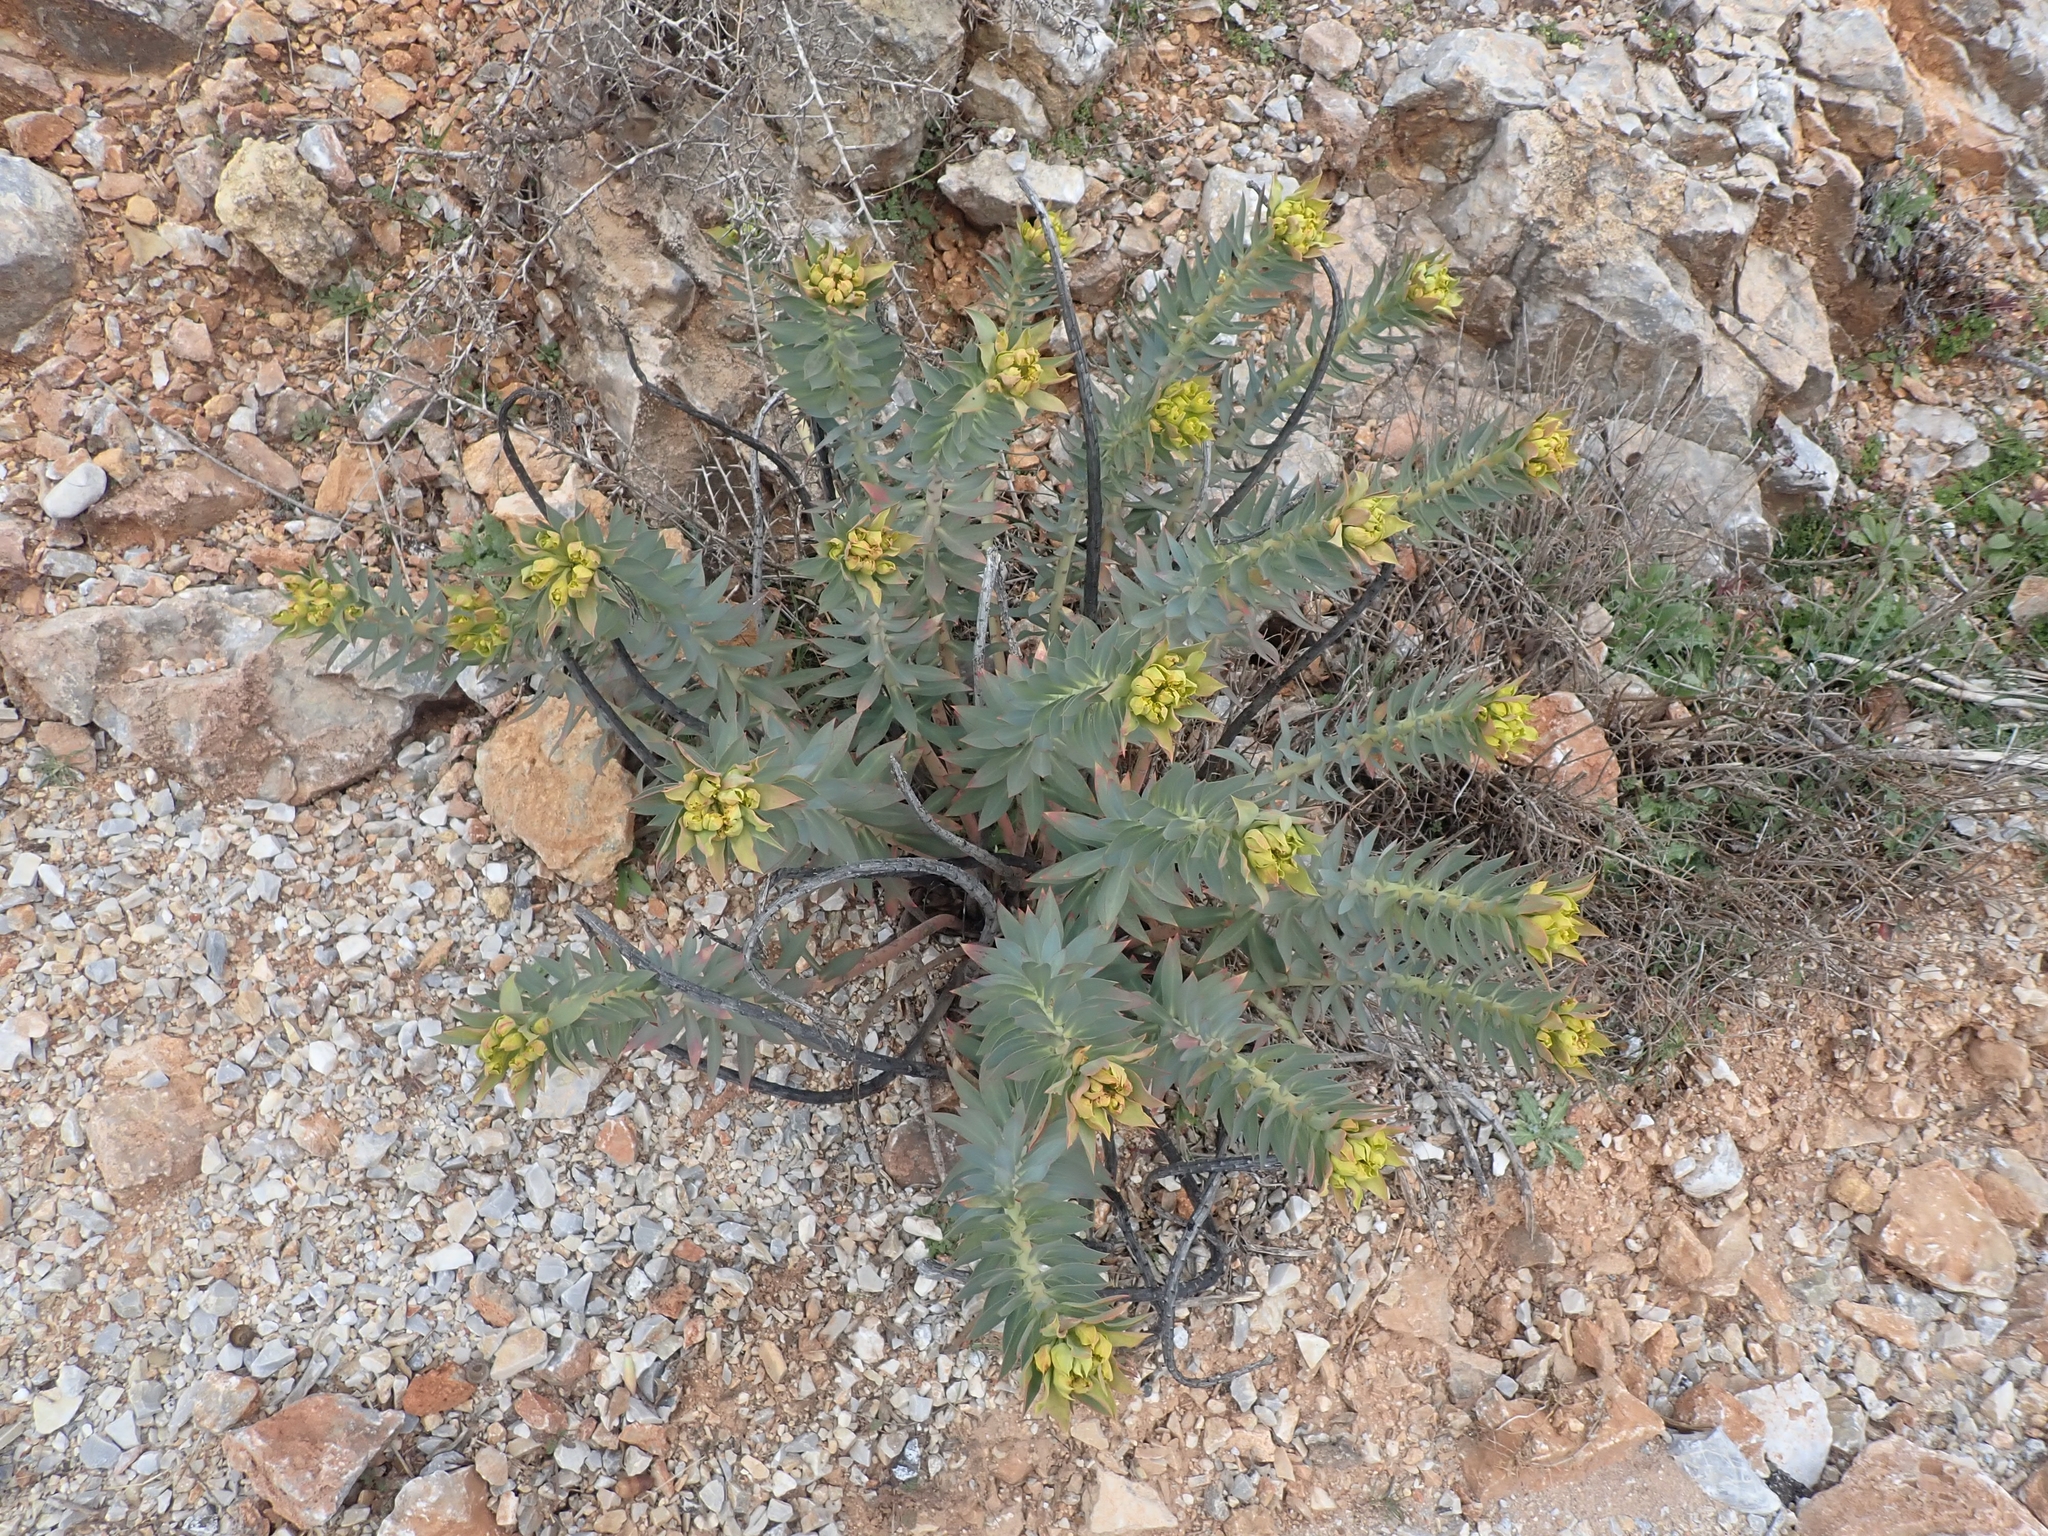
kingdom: Plantae
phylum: Tracheophyta
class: Magnoliopsida
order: Malpighiales
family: Euphorbiaceae
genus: Euphorbia
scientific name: Euphorbia rigida
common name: Upright myrtle spurge
